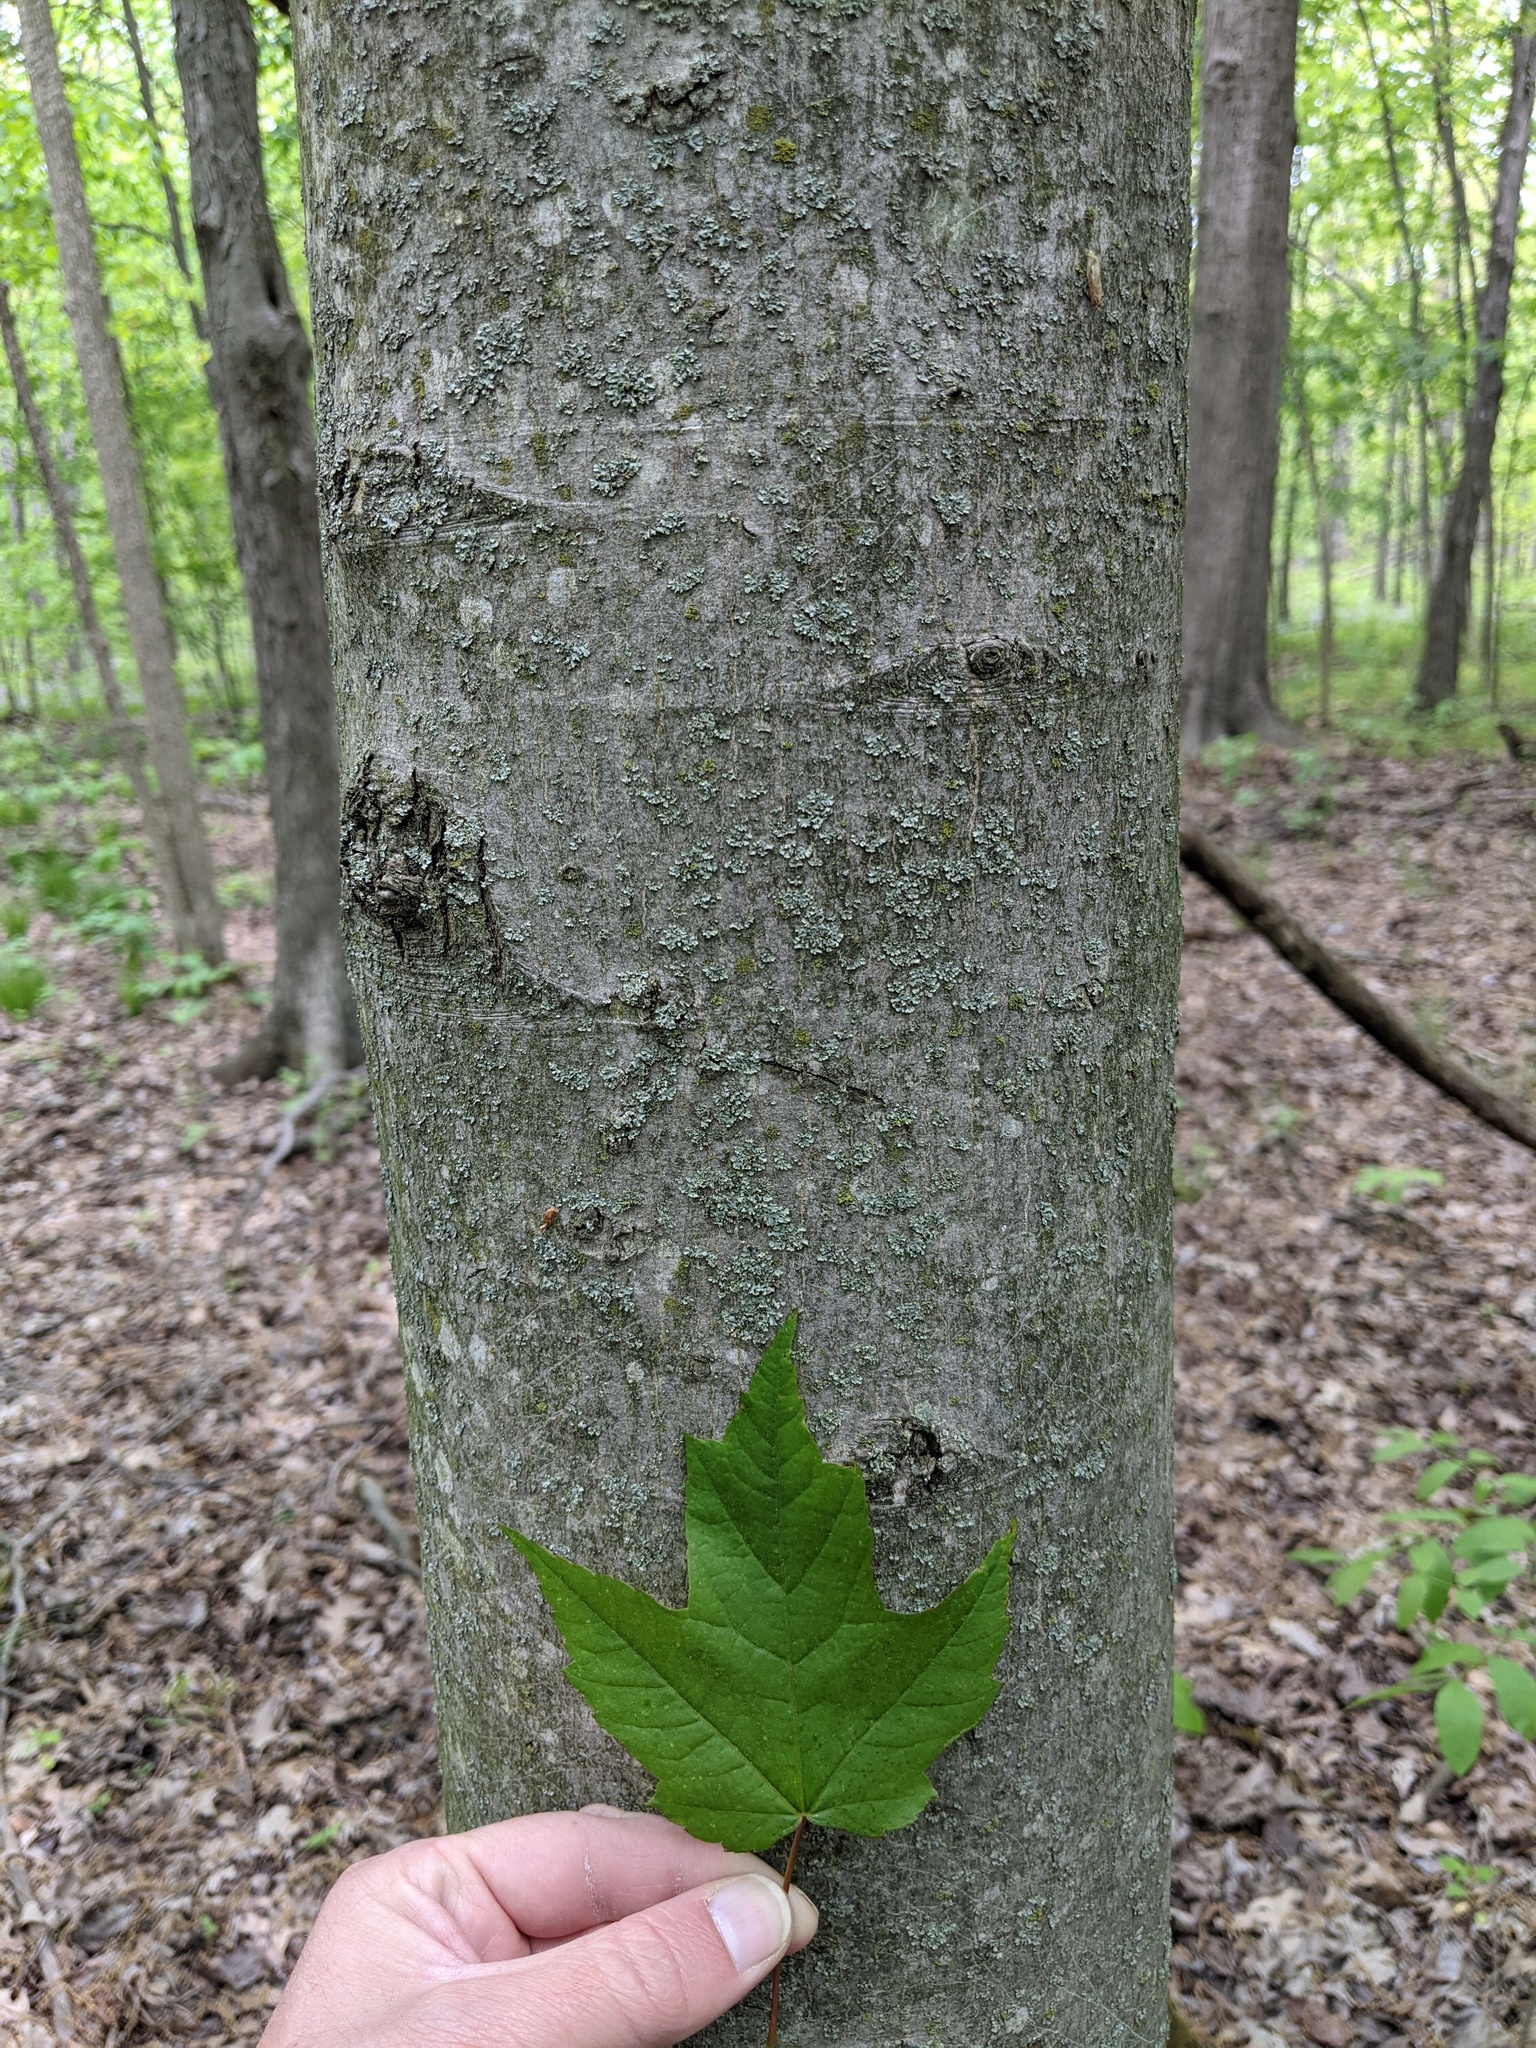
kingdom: Plantae
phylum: Tracheophyta
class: Magnoliopsida
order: Sapindales
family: Sapindaceae
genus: Acer
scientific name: Acer rubrum
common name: Red maple
